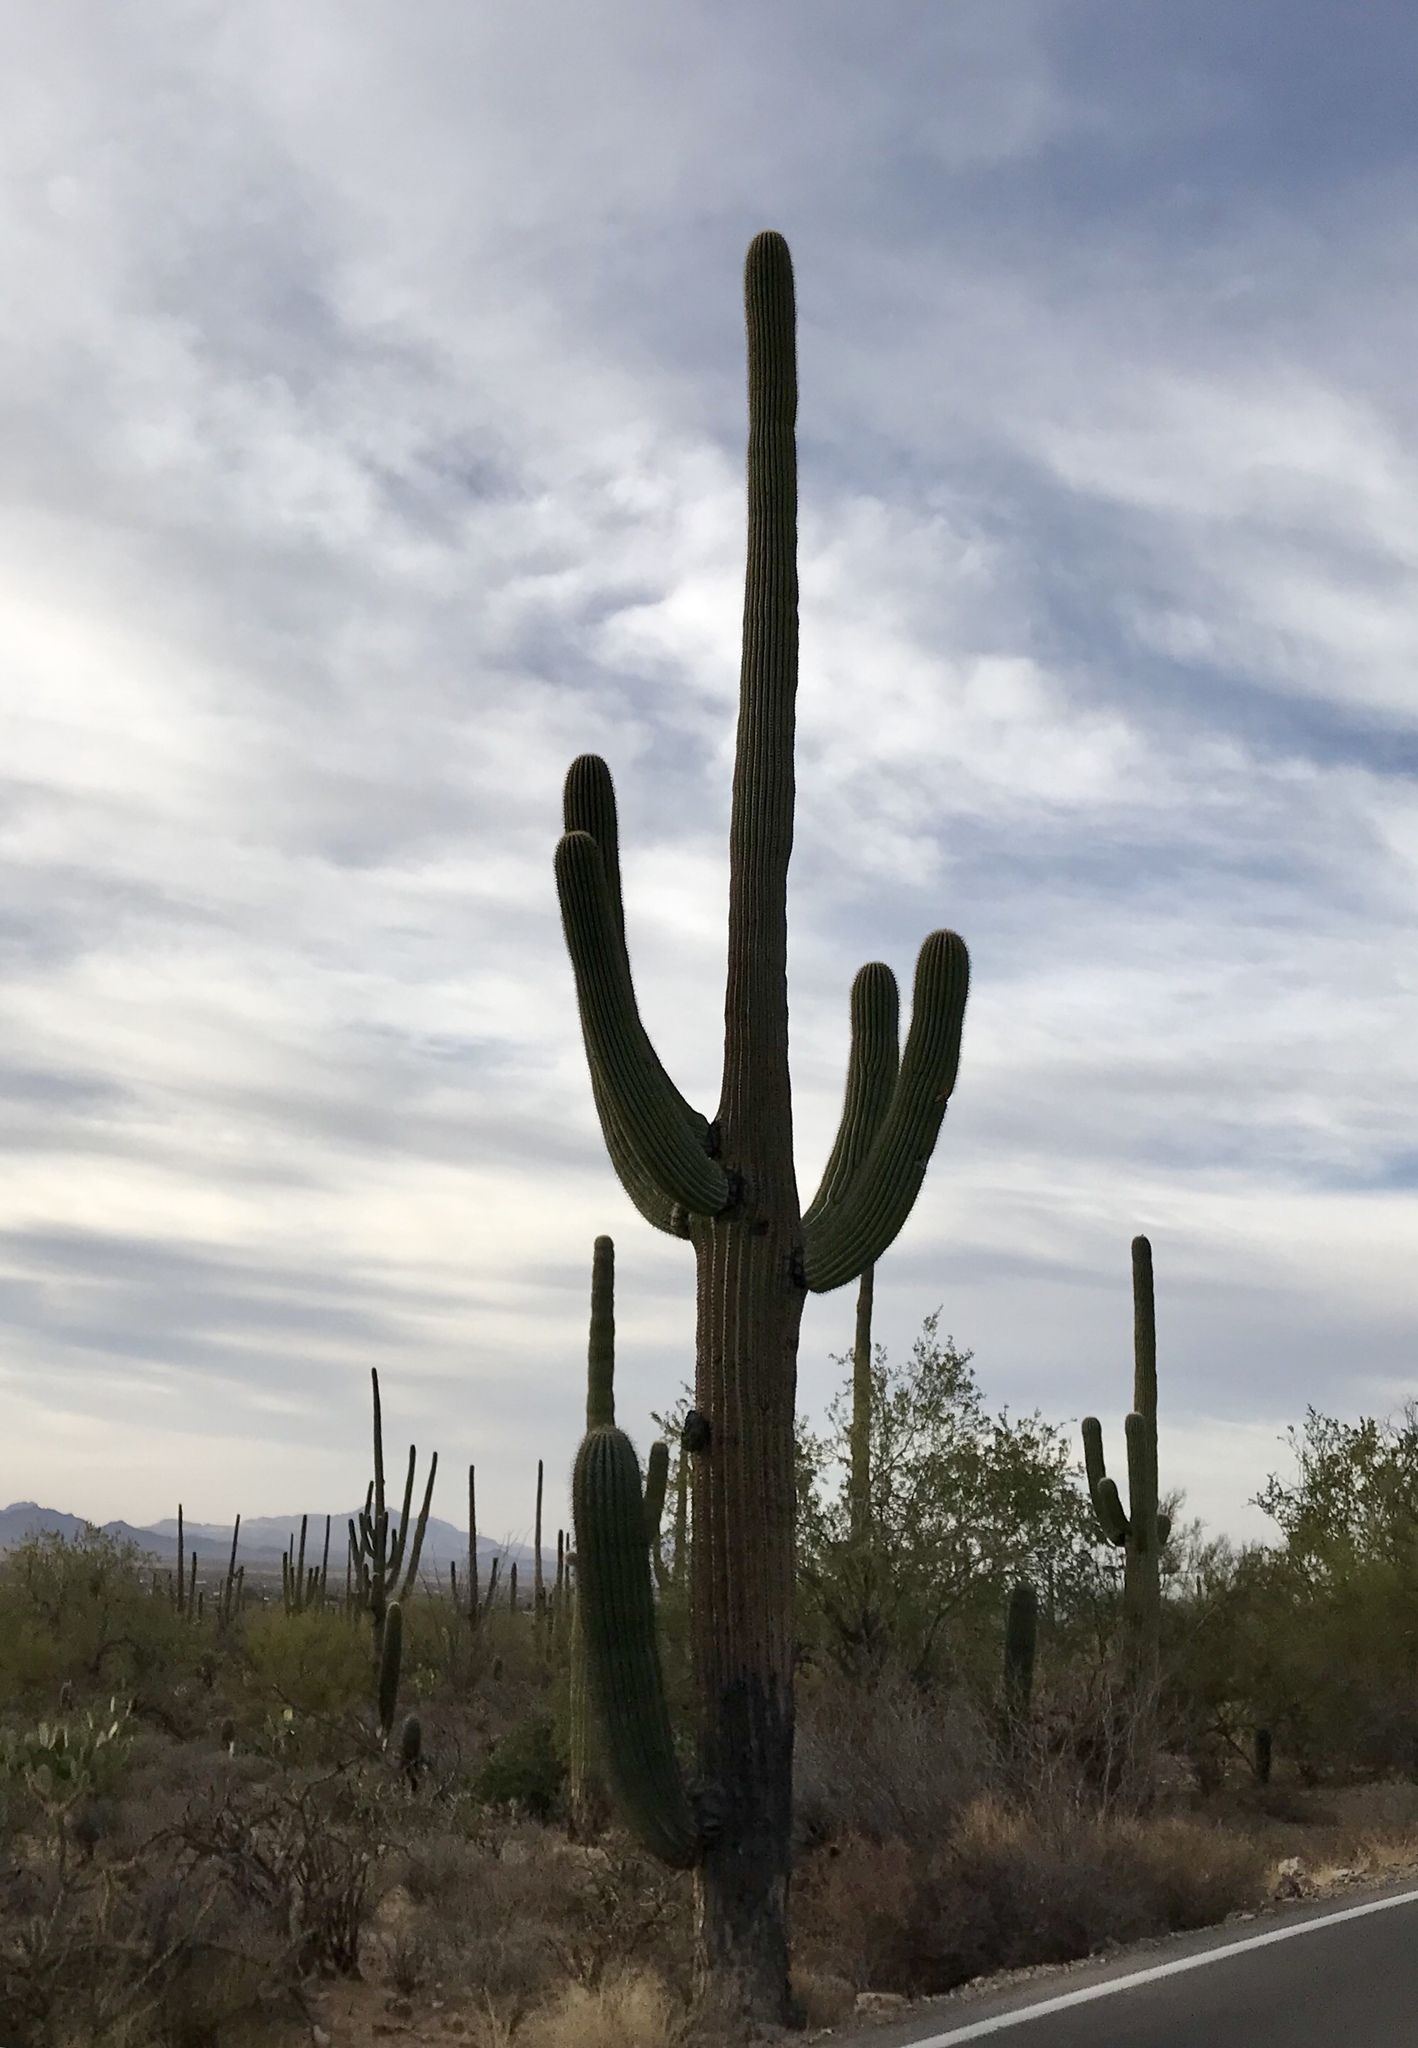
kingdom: Plantae
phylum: Tracheophyta
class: Magnoliopsida
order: Caryophyllales
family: Cactaceae
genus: Carnegiea
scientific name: Carnegiea gigantea
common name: Saguaro
